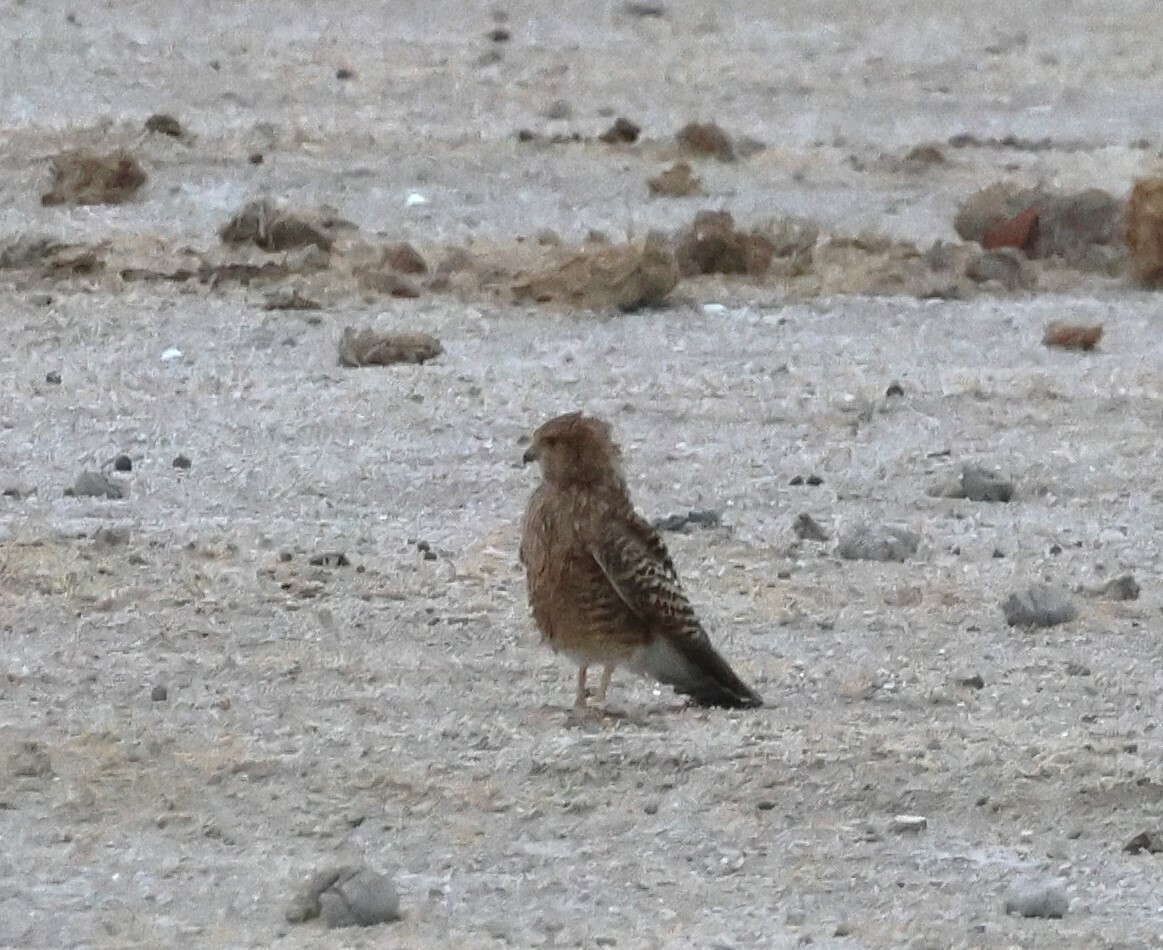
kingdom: Animalia
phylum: Chordata
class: Aves
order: Falconiformes
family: Falconidae
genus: Falco
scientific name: Falco rupicoloides
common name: Greater kestrel
